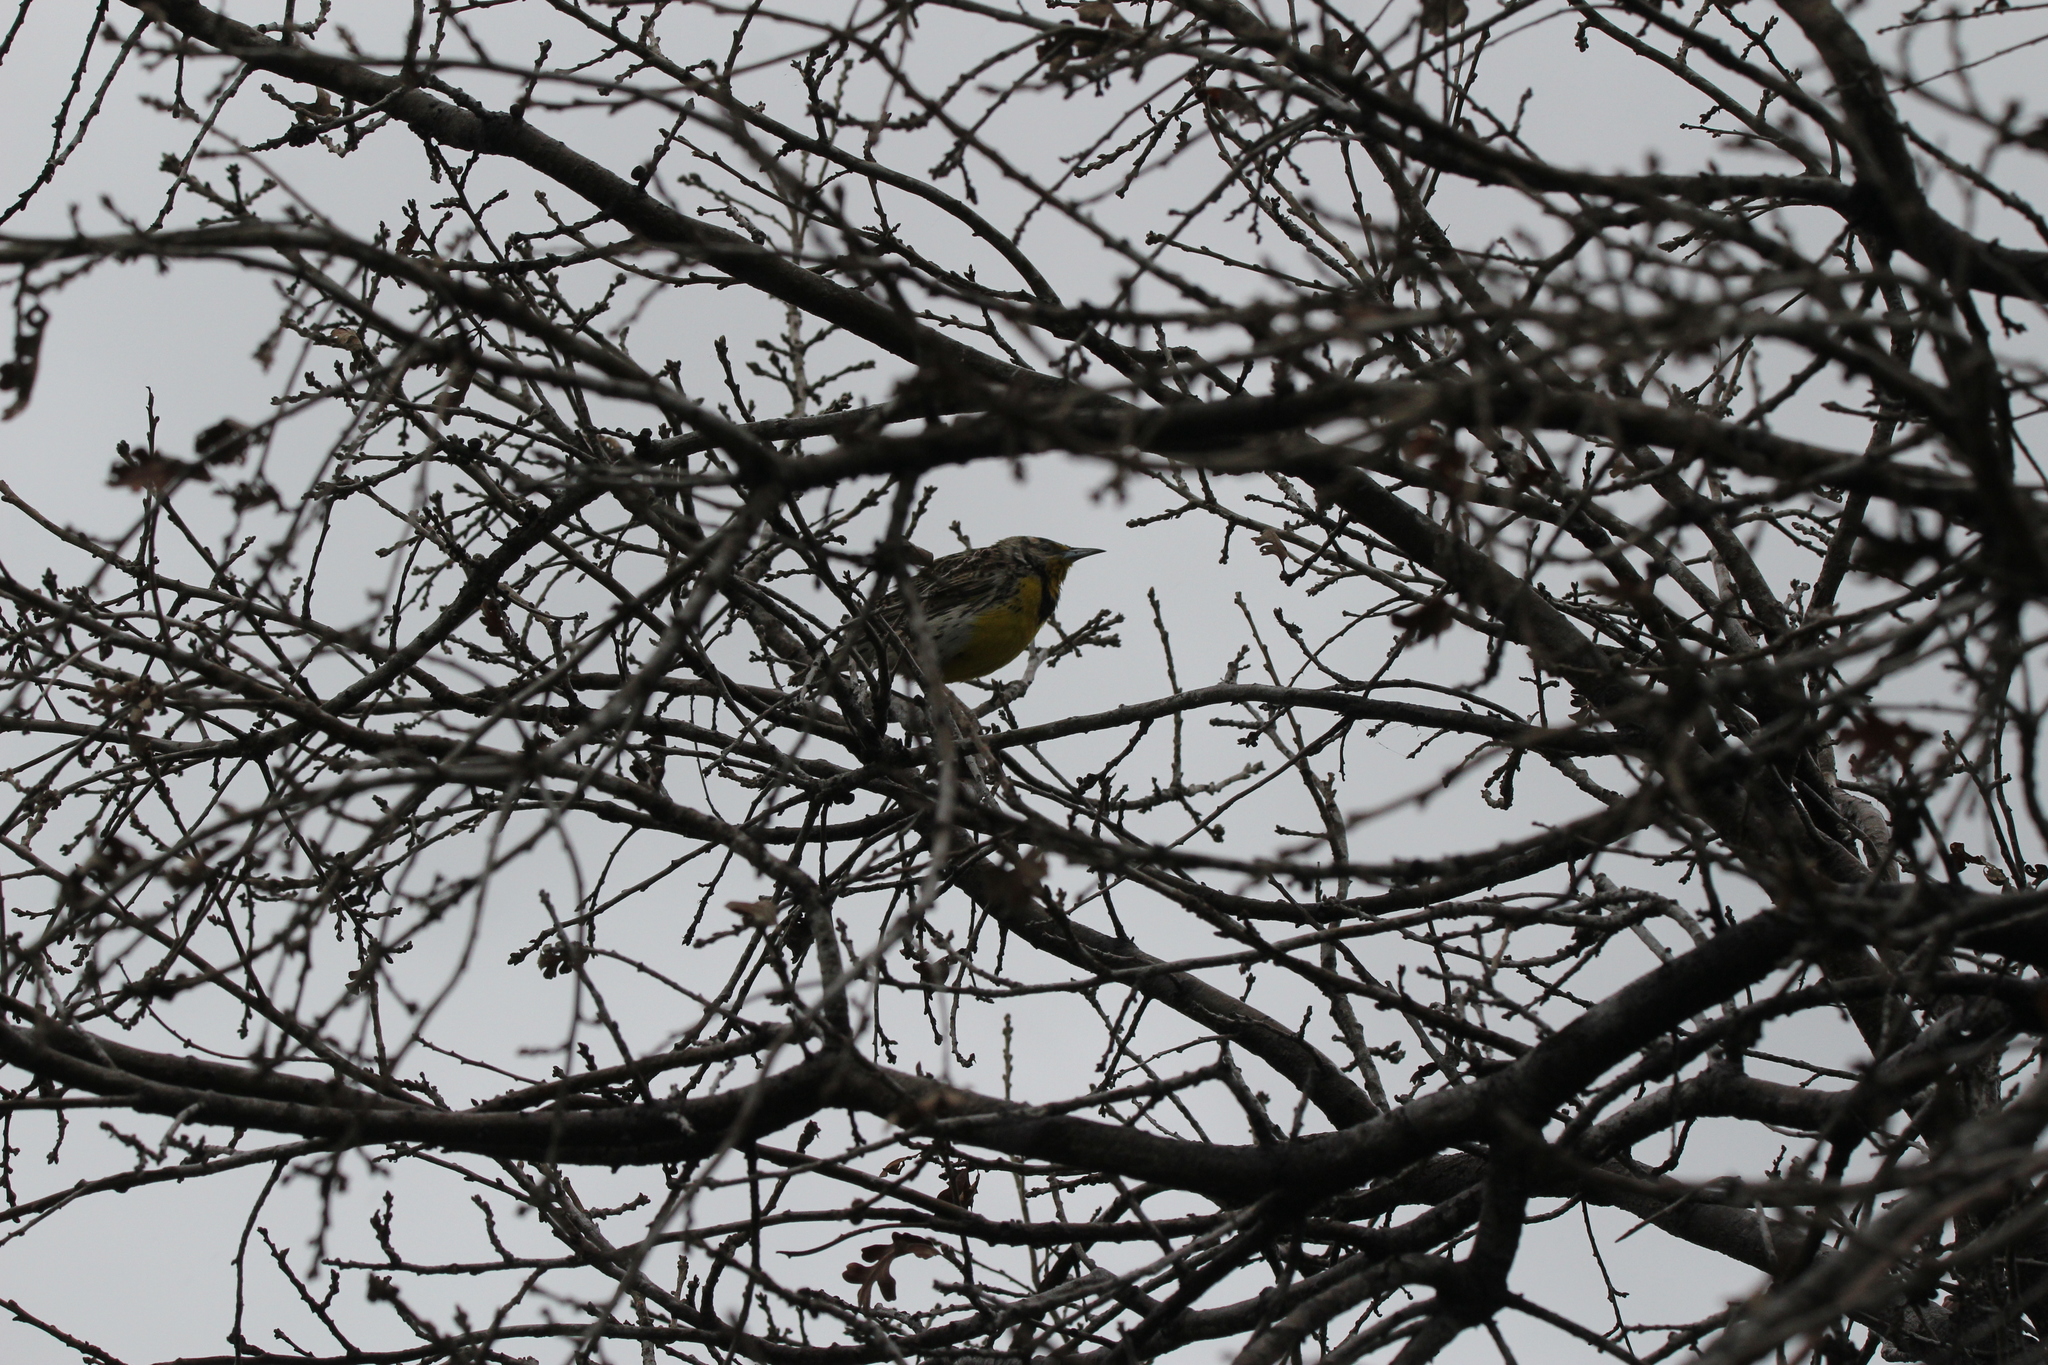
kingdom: Animalia
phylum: Chordata
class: Aves
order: Passeriformes
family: Icteridae
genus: Sturnella
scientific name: Sturnella neglecta
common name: Western meadowlark
